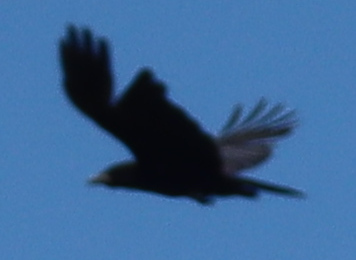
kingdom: Animalia
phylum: Chordata
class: Aves
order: Passeriformes
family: Corvidae
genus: Corvus
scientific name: Corvus brachyrhynchos
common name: American crow
